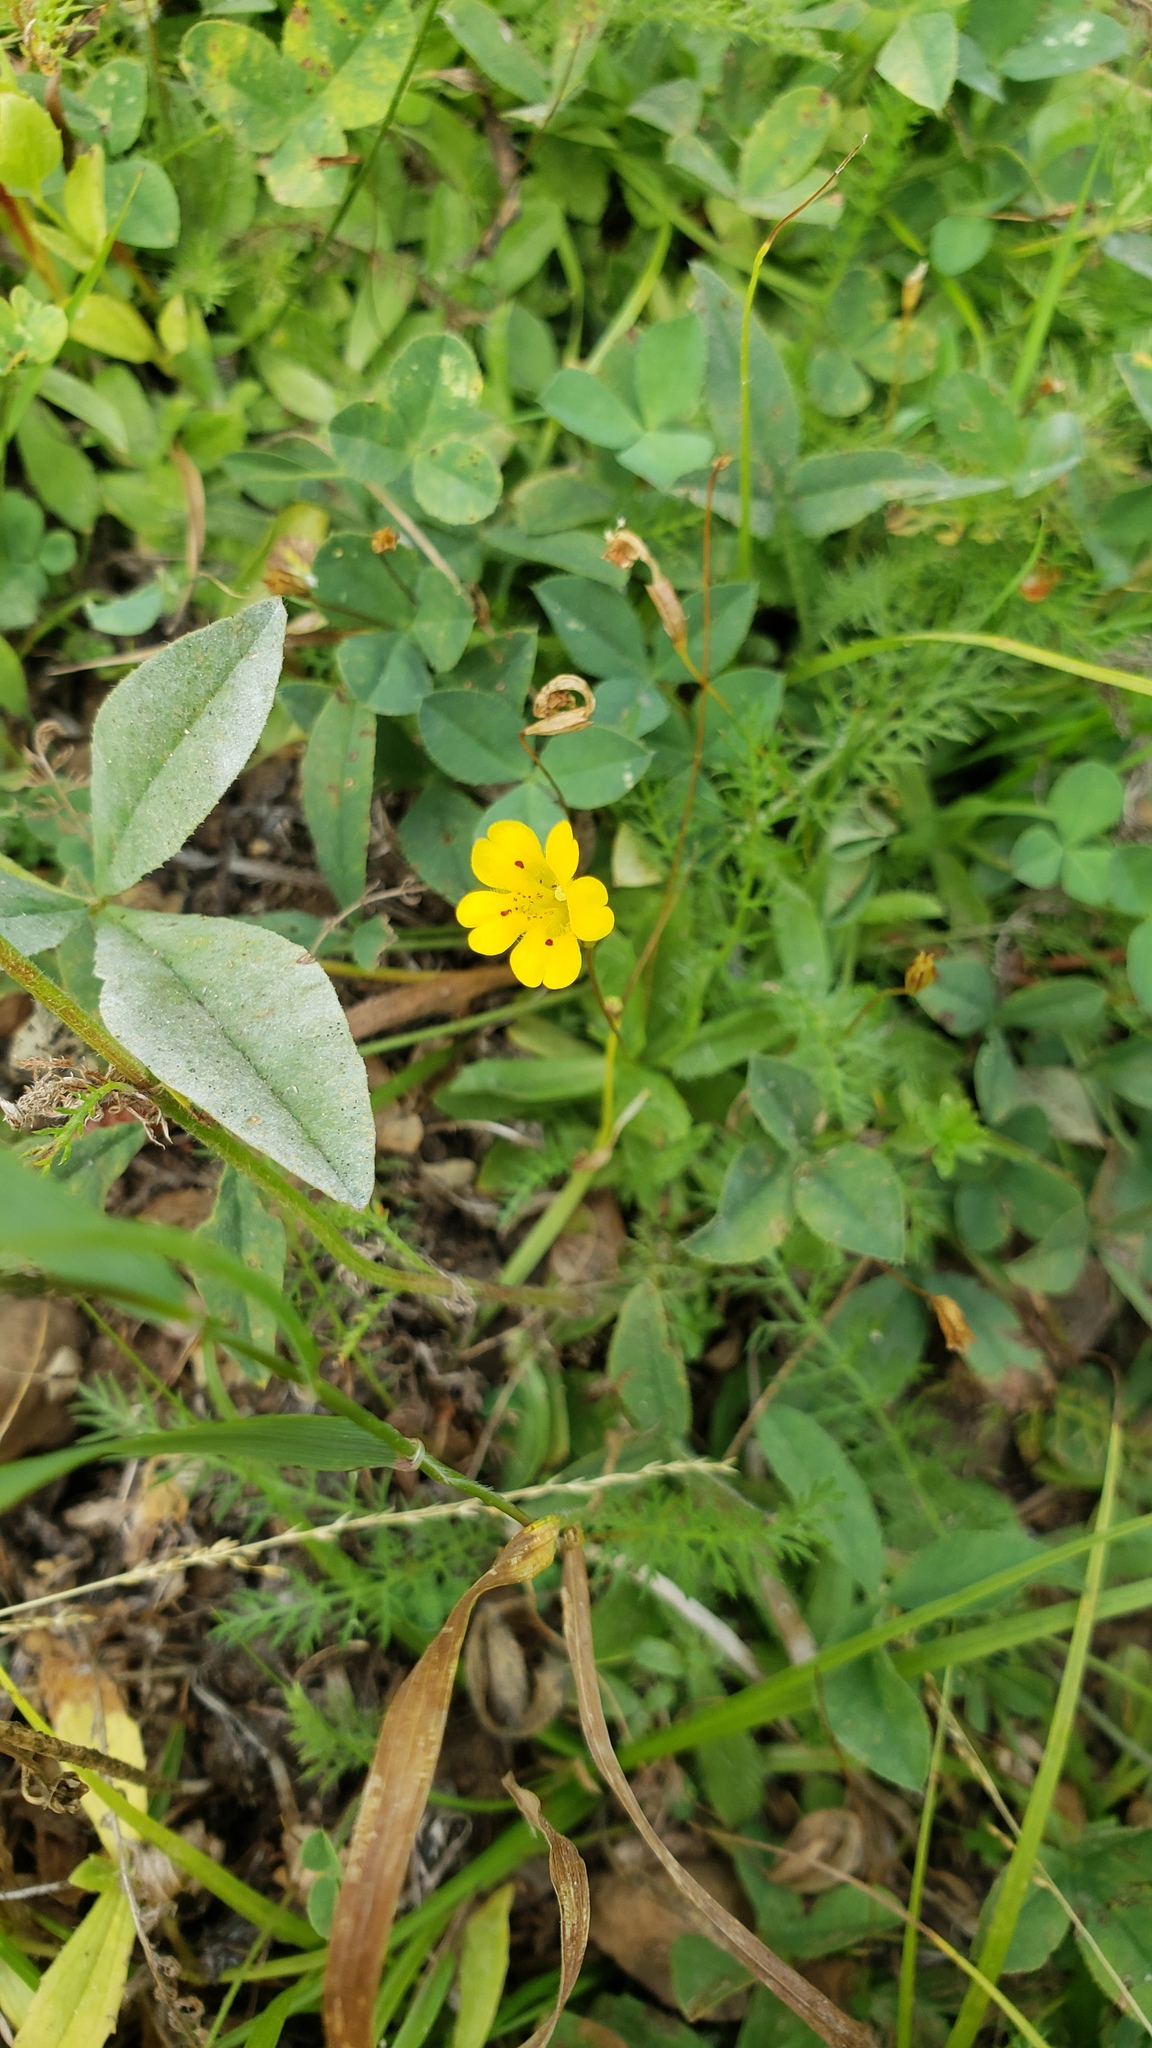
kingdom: Plantae
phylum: Tracheophyta
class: Magnoliopsida
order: Lamiales
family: Phrymaceae
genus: Erythranthe
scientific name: Erythranthe primuloides
